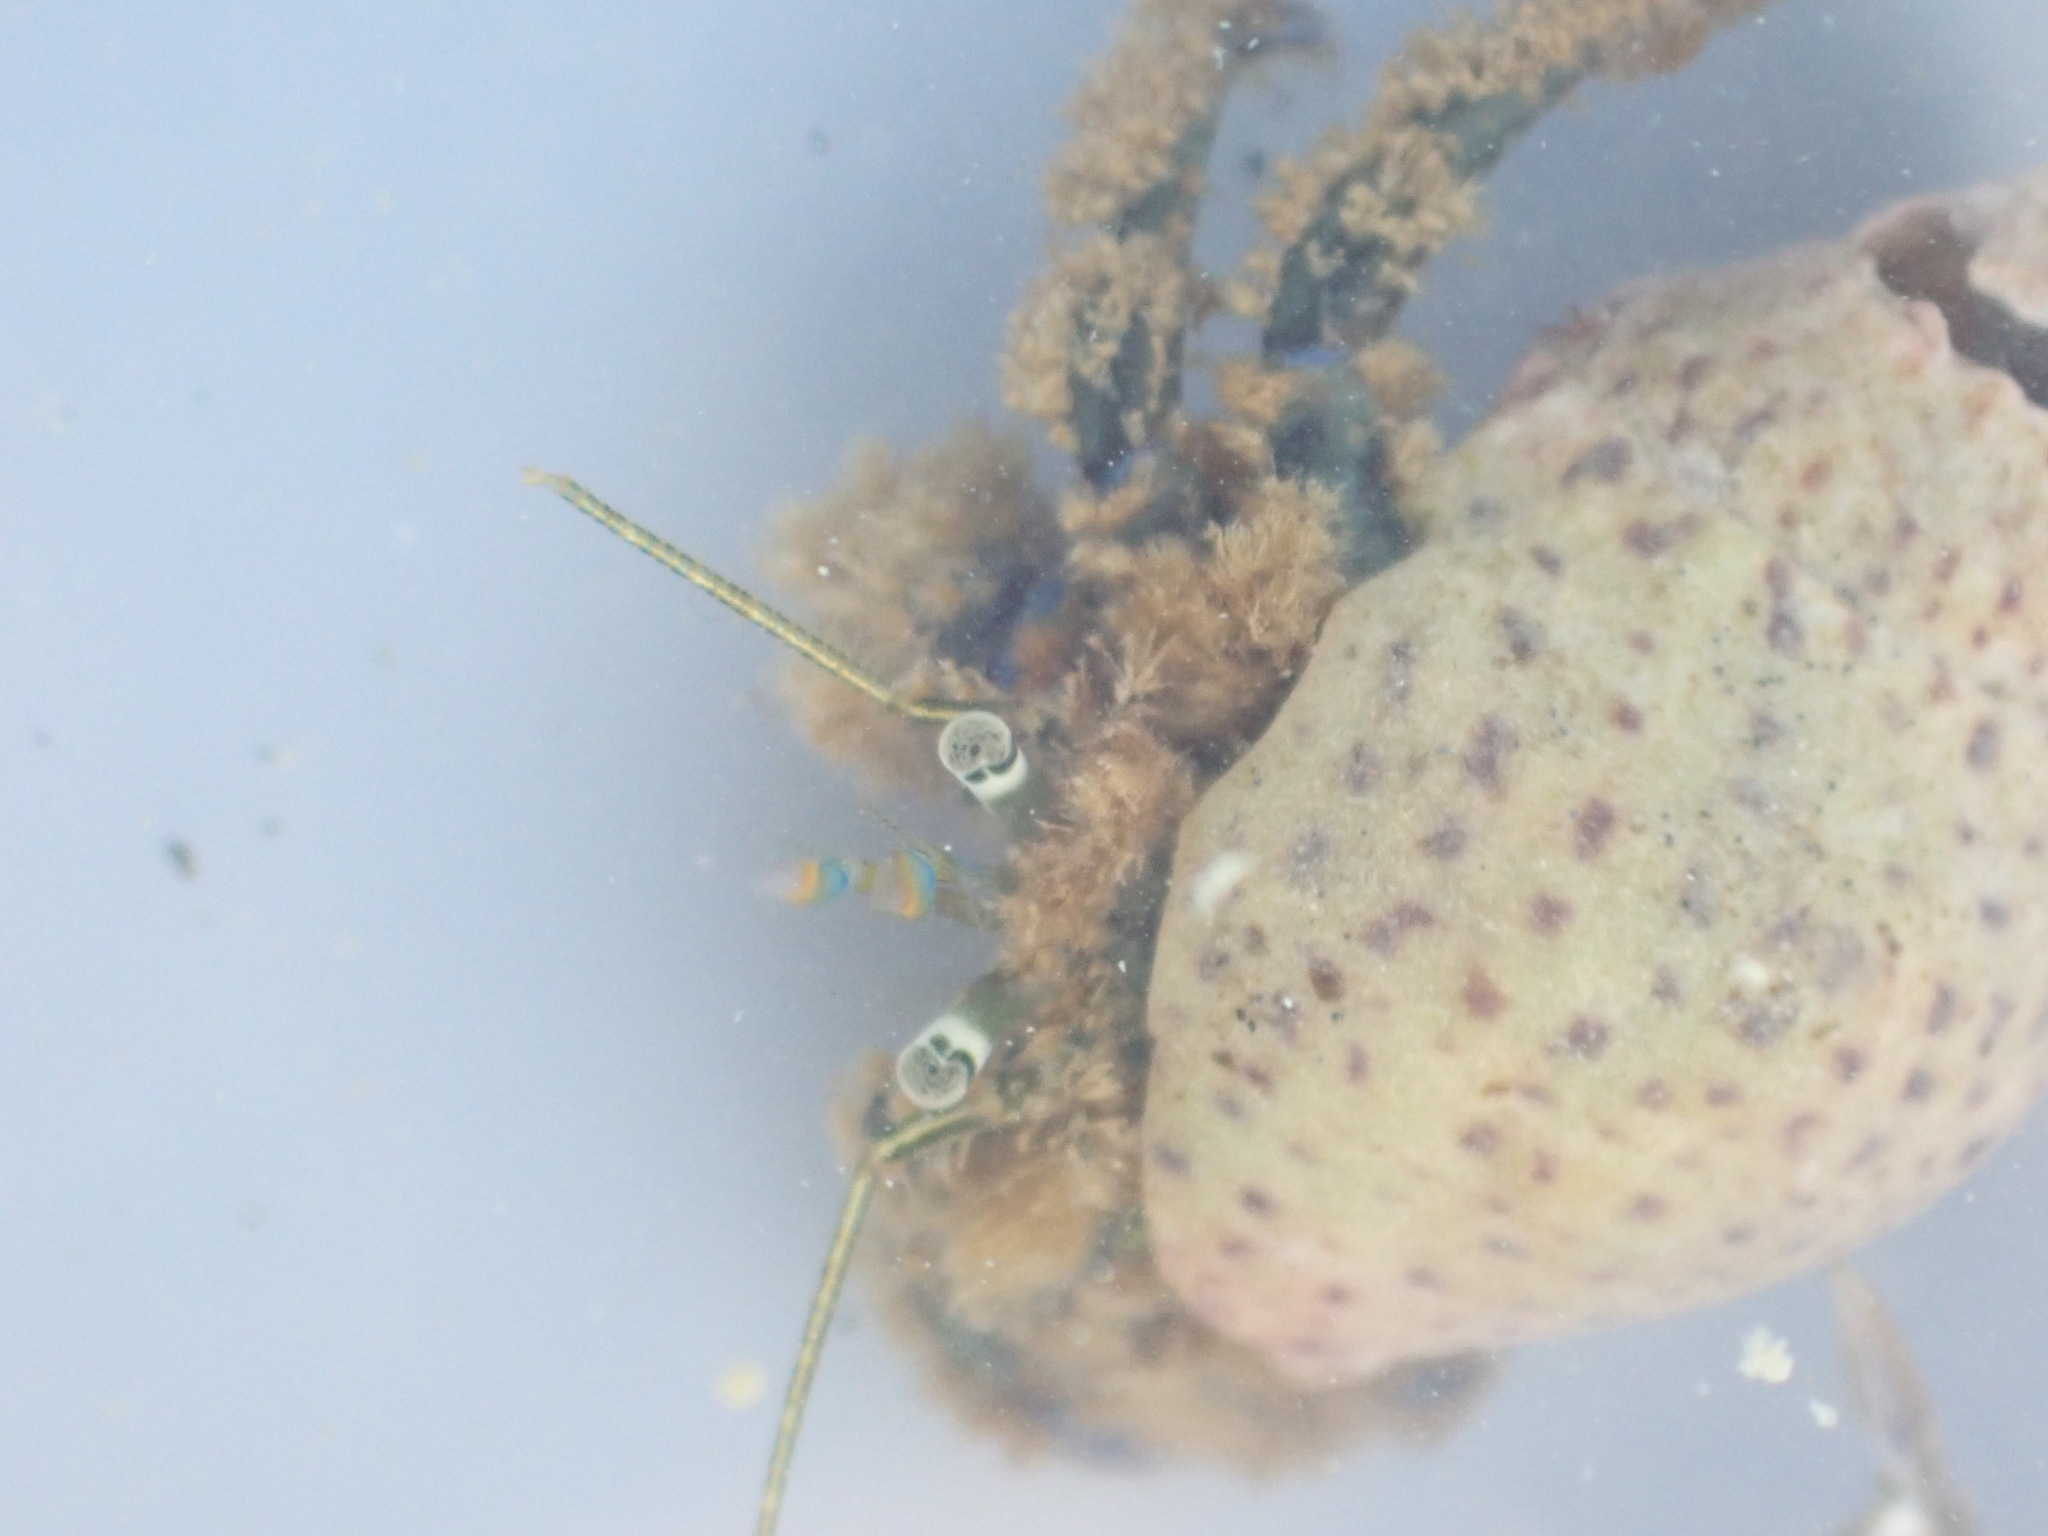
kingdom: Animalia
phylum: Arthropoda
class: Malacostraca
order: Decapoda
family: Paguridae
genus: Pagurus
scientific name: Pagurus novizealandiae
